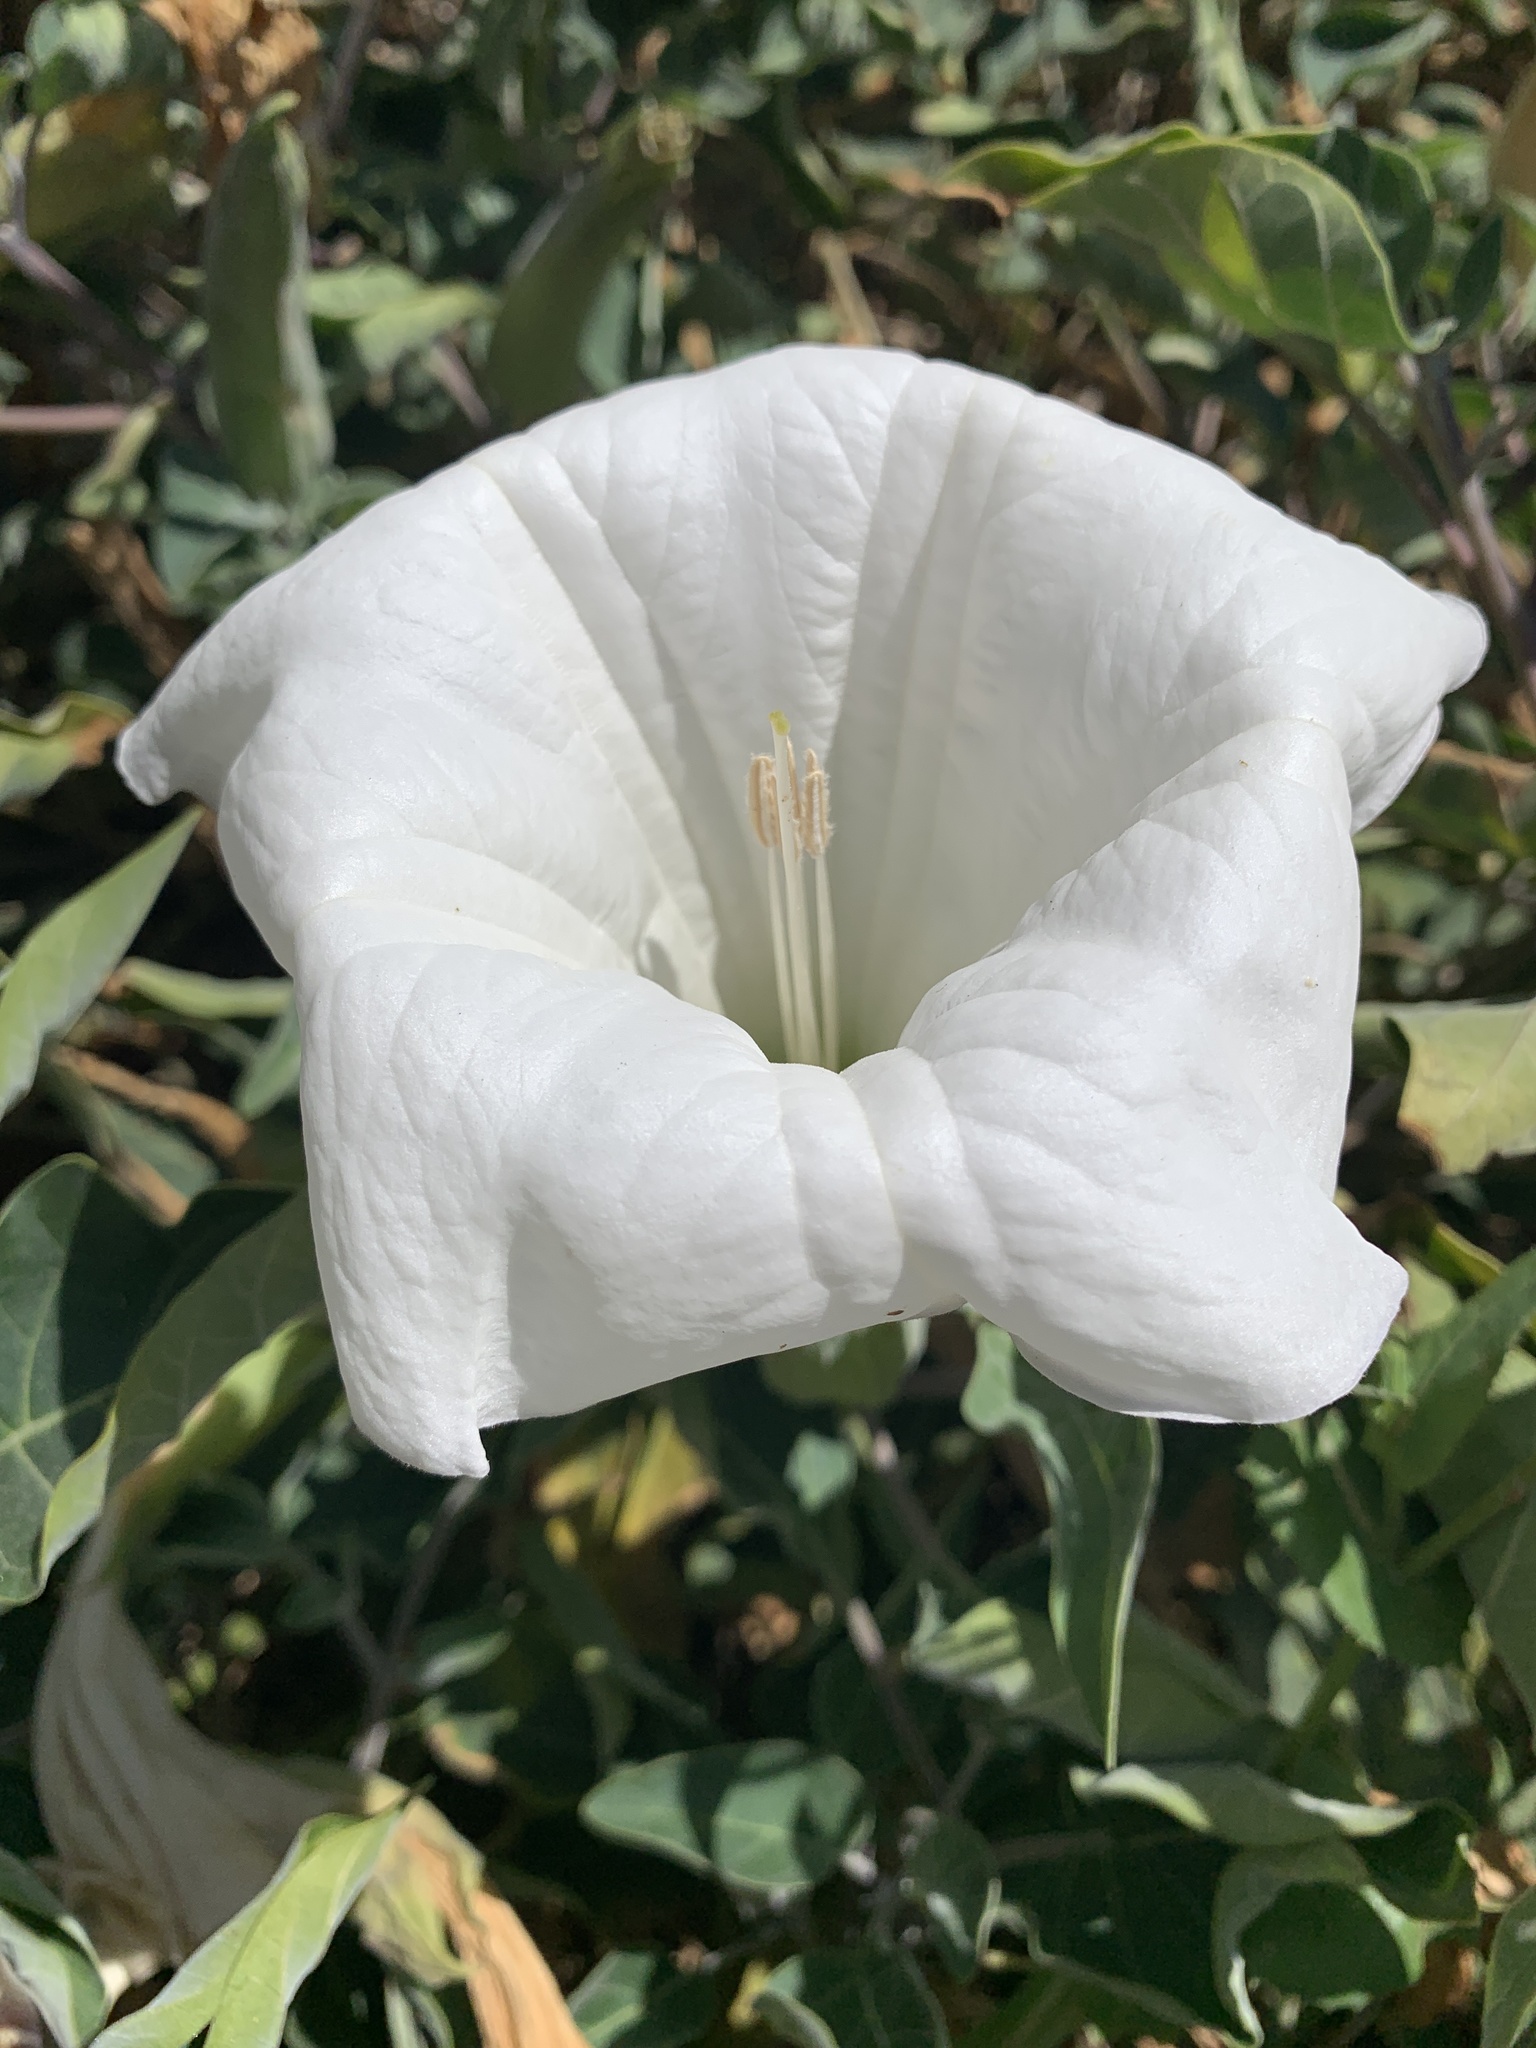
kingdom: Plantae
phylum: Tracheophyta
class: Magnoliopsida
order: Solanales
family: Solanaceae
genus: Datura
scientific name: Datura wrightii
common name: Sacred thorn-apple
